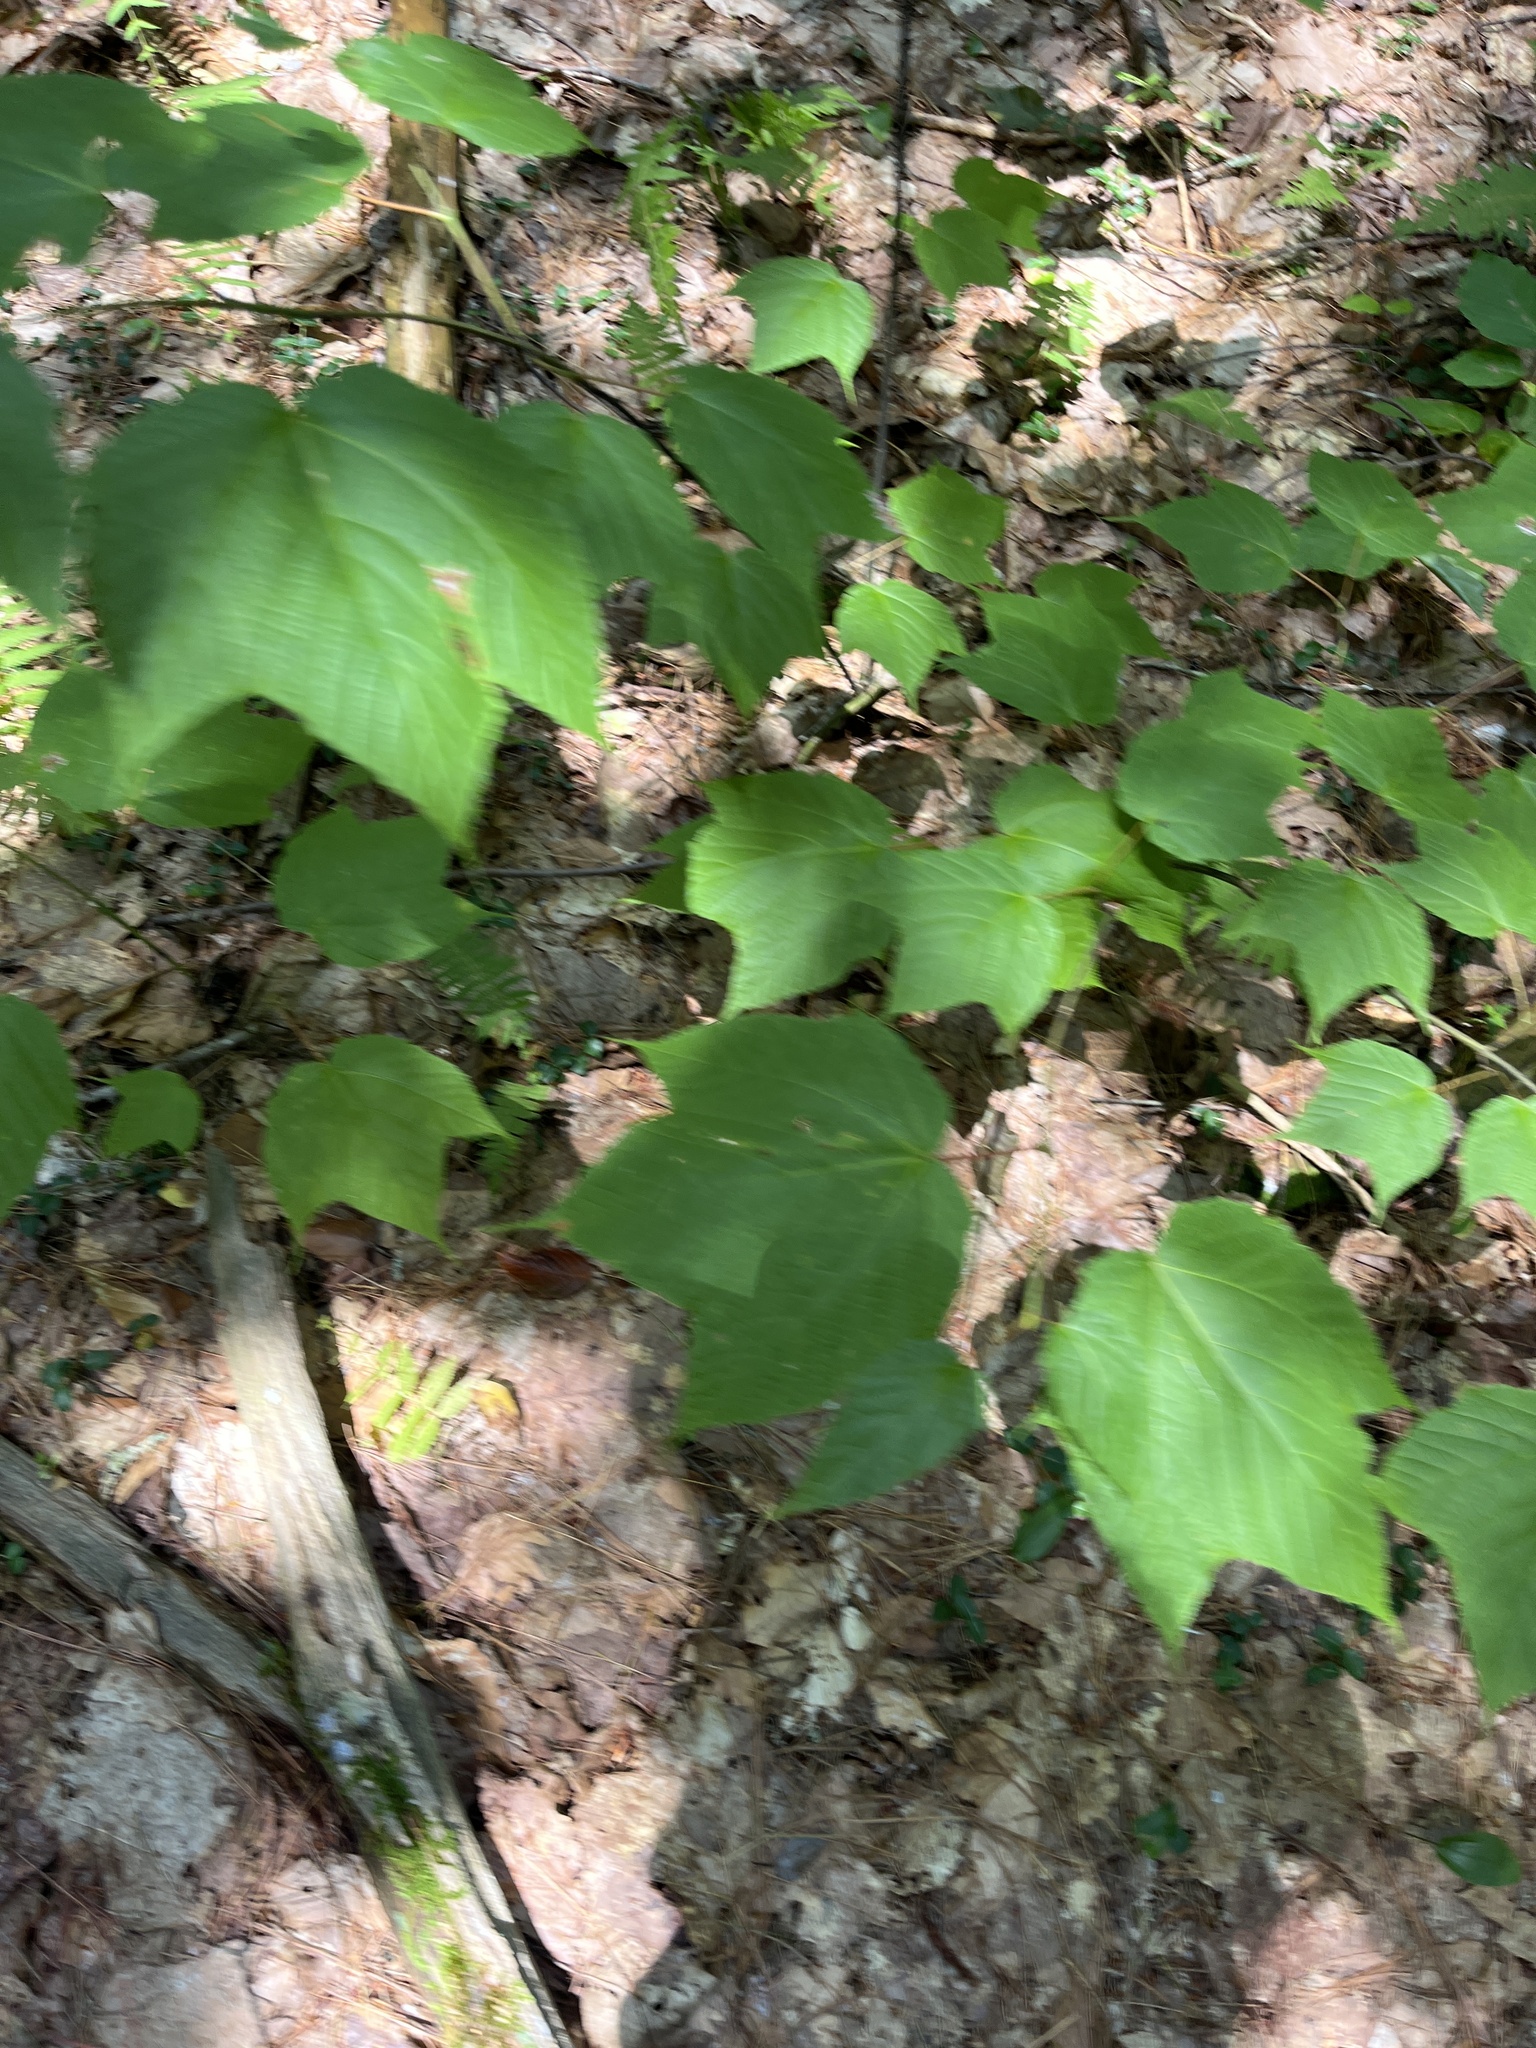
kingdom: Plantae
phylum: Tracheophyta
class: Magnoliopsida
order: Sapindales
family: Sapindaceae
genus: Acer
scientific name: Acer pensylvanicum
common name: Moosewood
